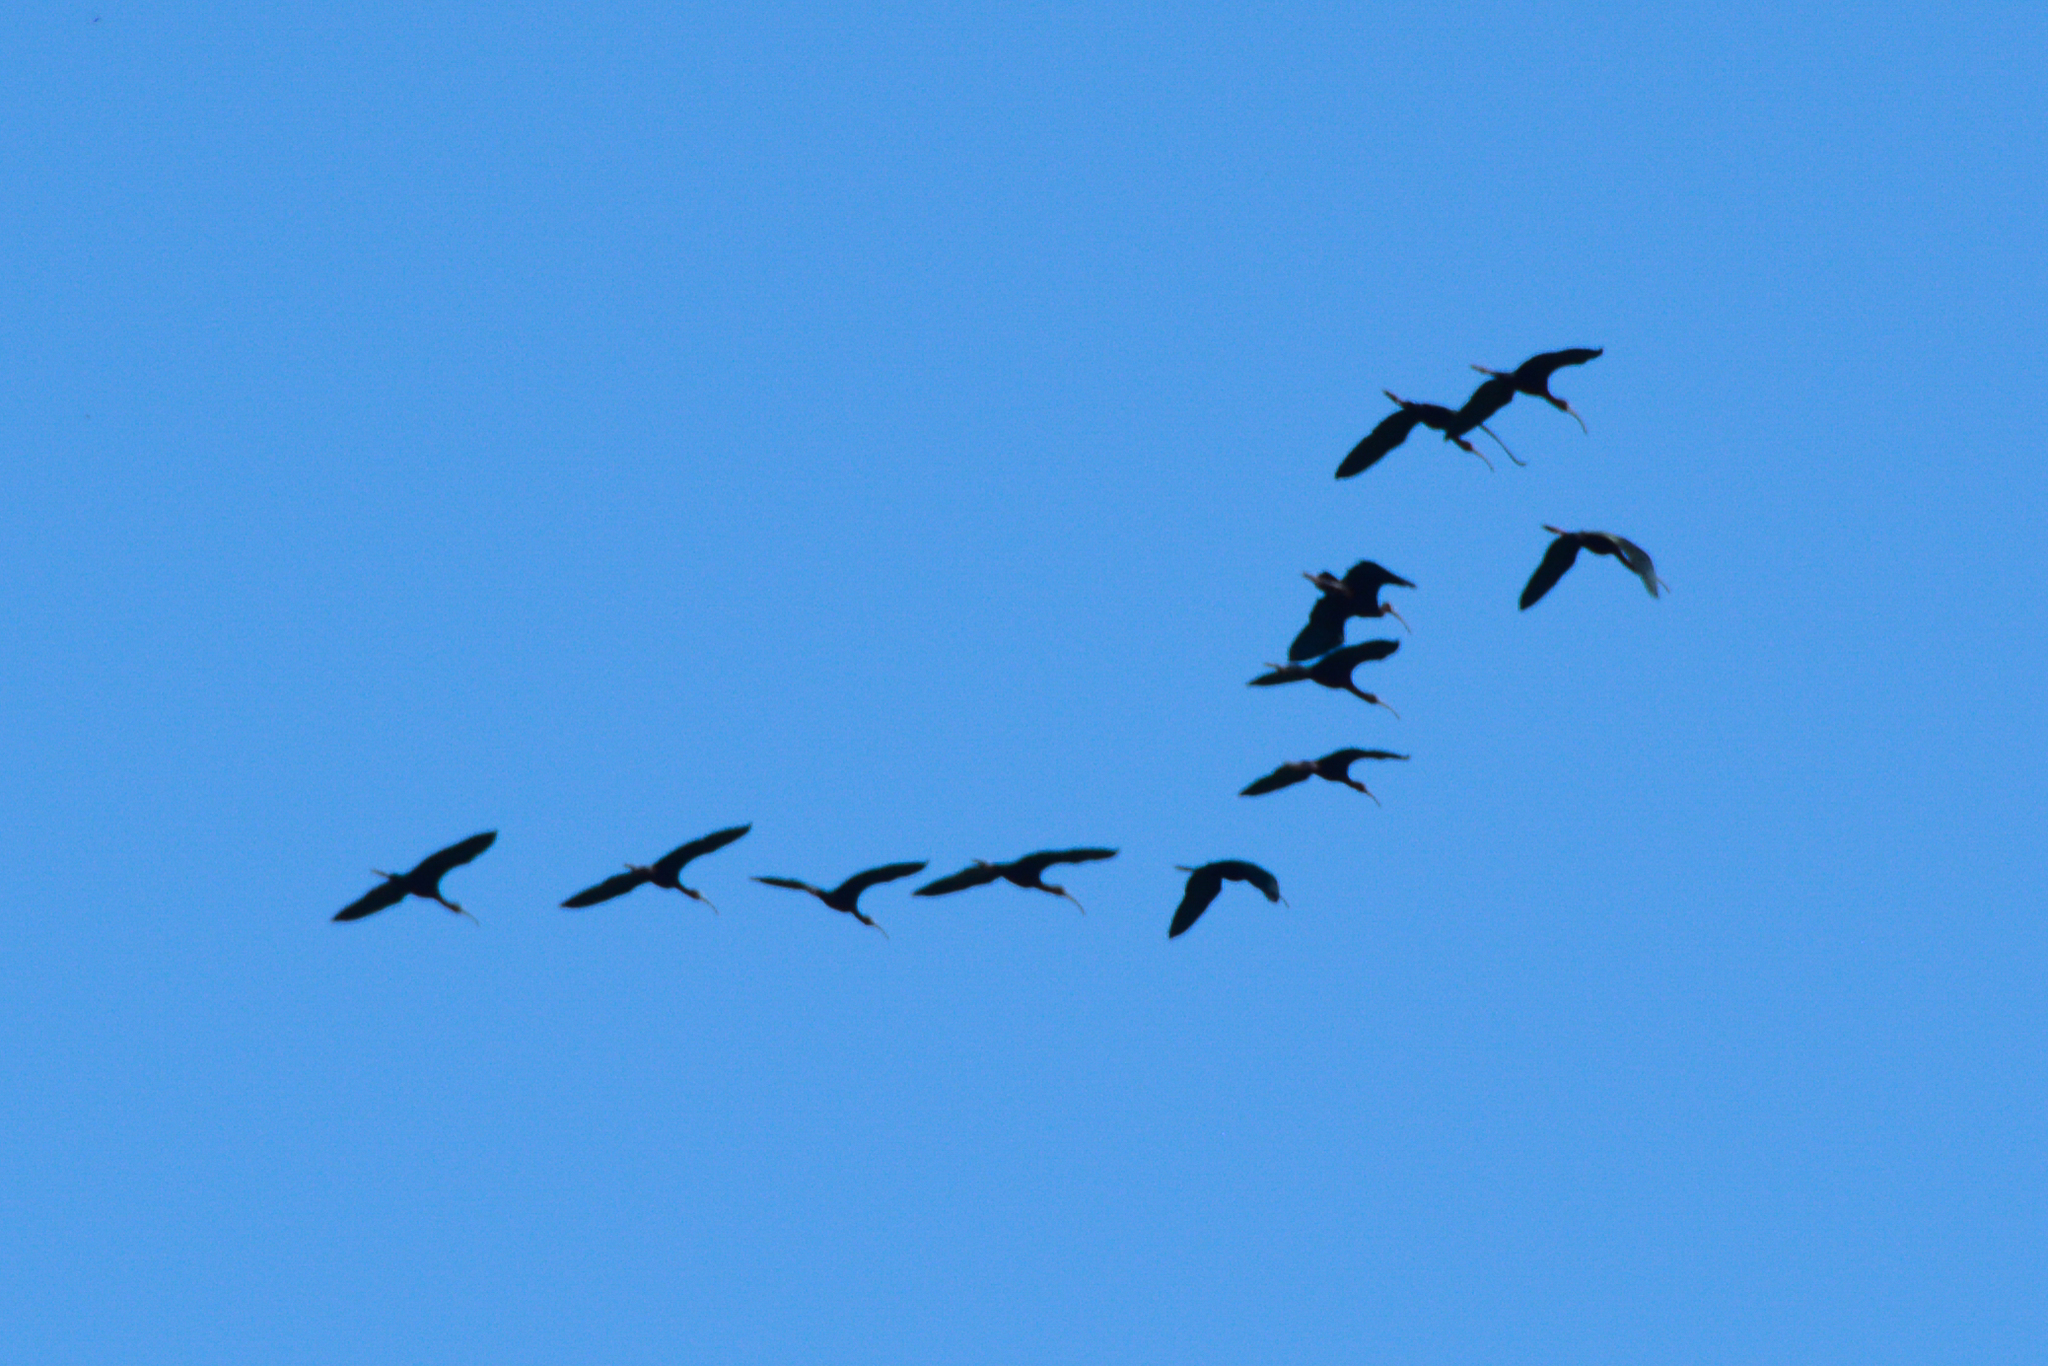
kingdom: Animalia
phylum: Chordata
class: Aves
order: Pelecaniformes
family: Threskiornithidae
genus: Plegadis
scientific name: Plegadis chihi
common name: White-faced ibis
